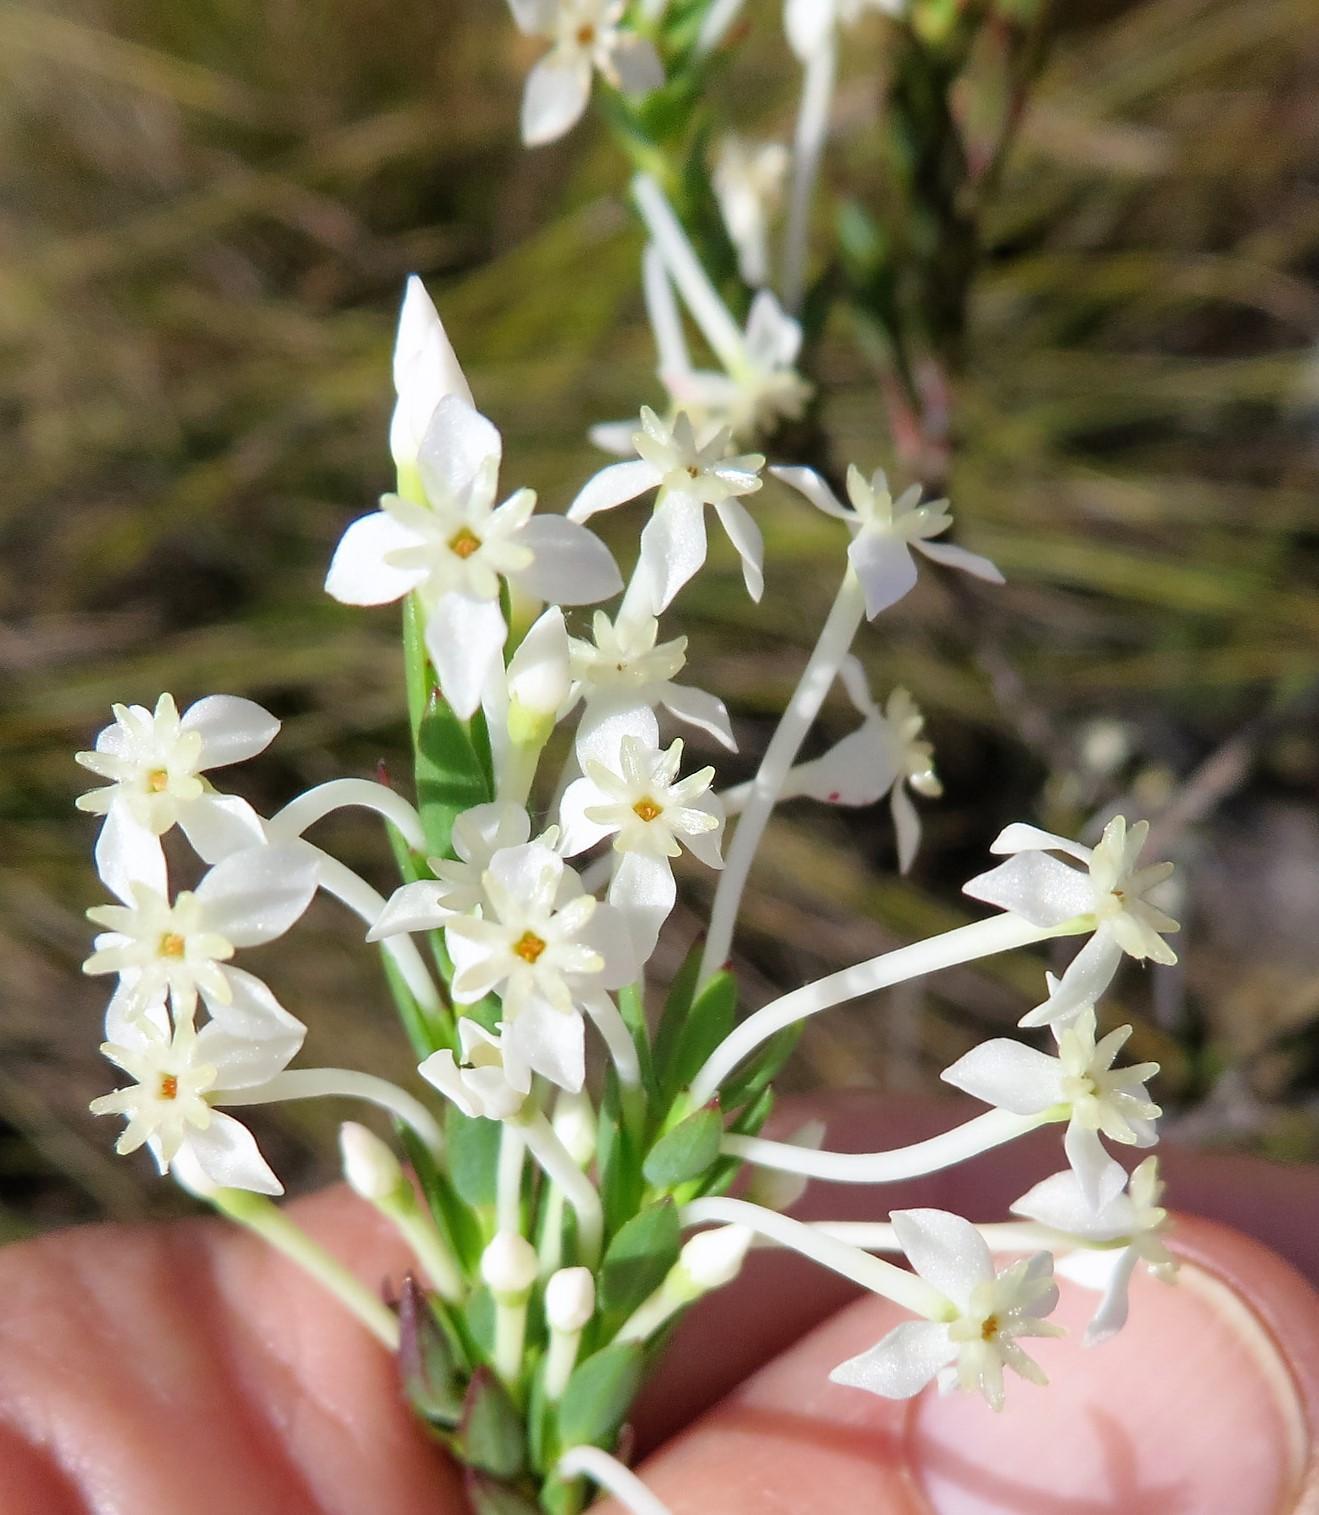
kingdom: Plantae
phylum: Tracheophyta
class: Magnoliopsida
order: Malvales
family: Thymelaeaceae
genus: Struthiola
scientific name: Struthiola myrsinites
